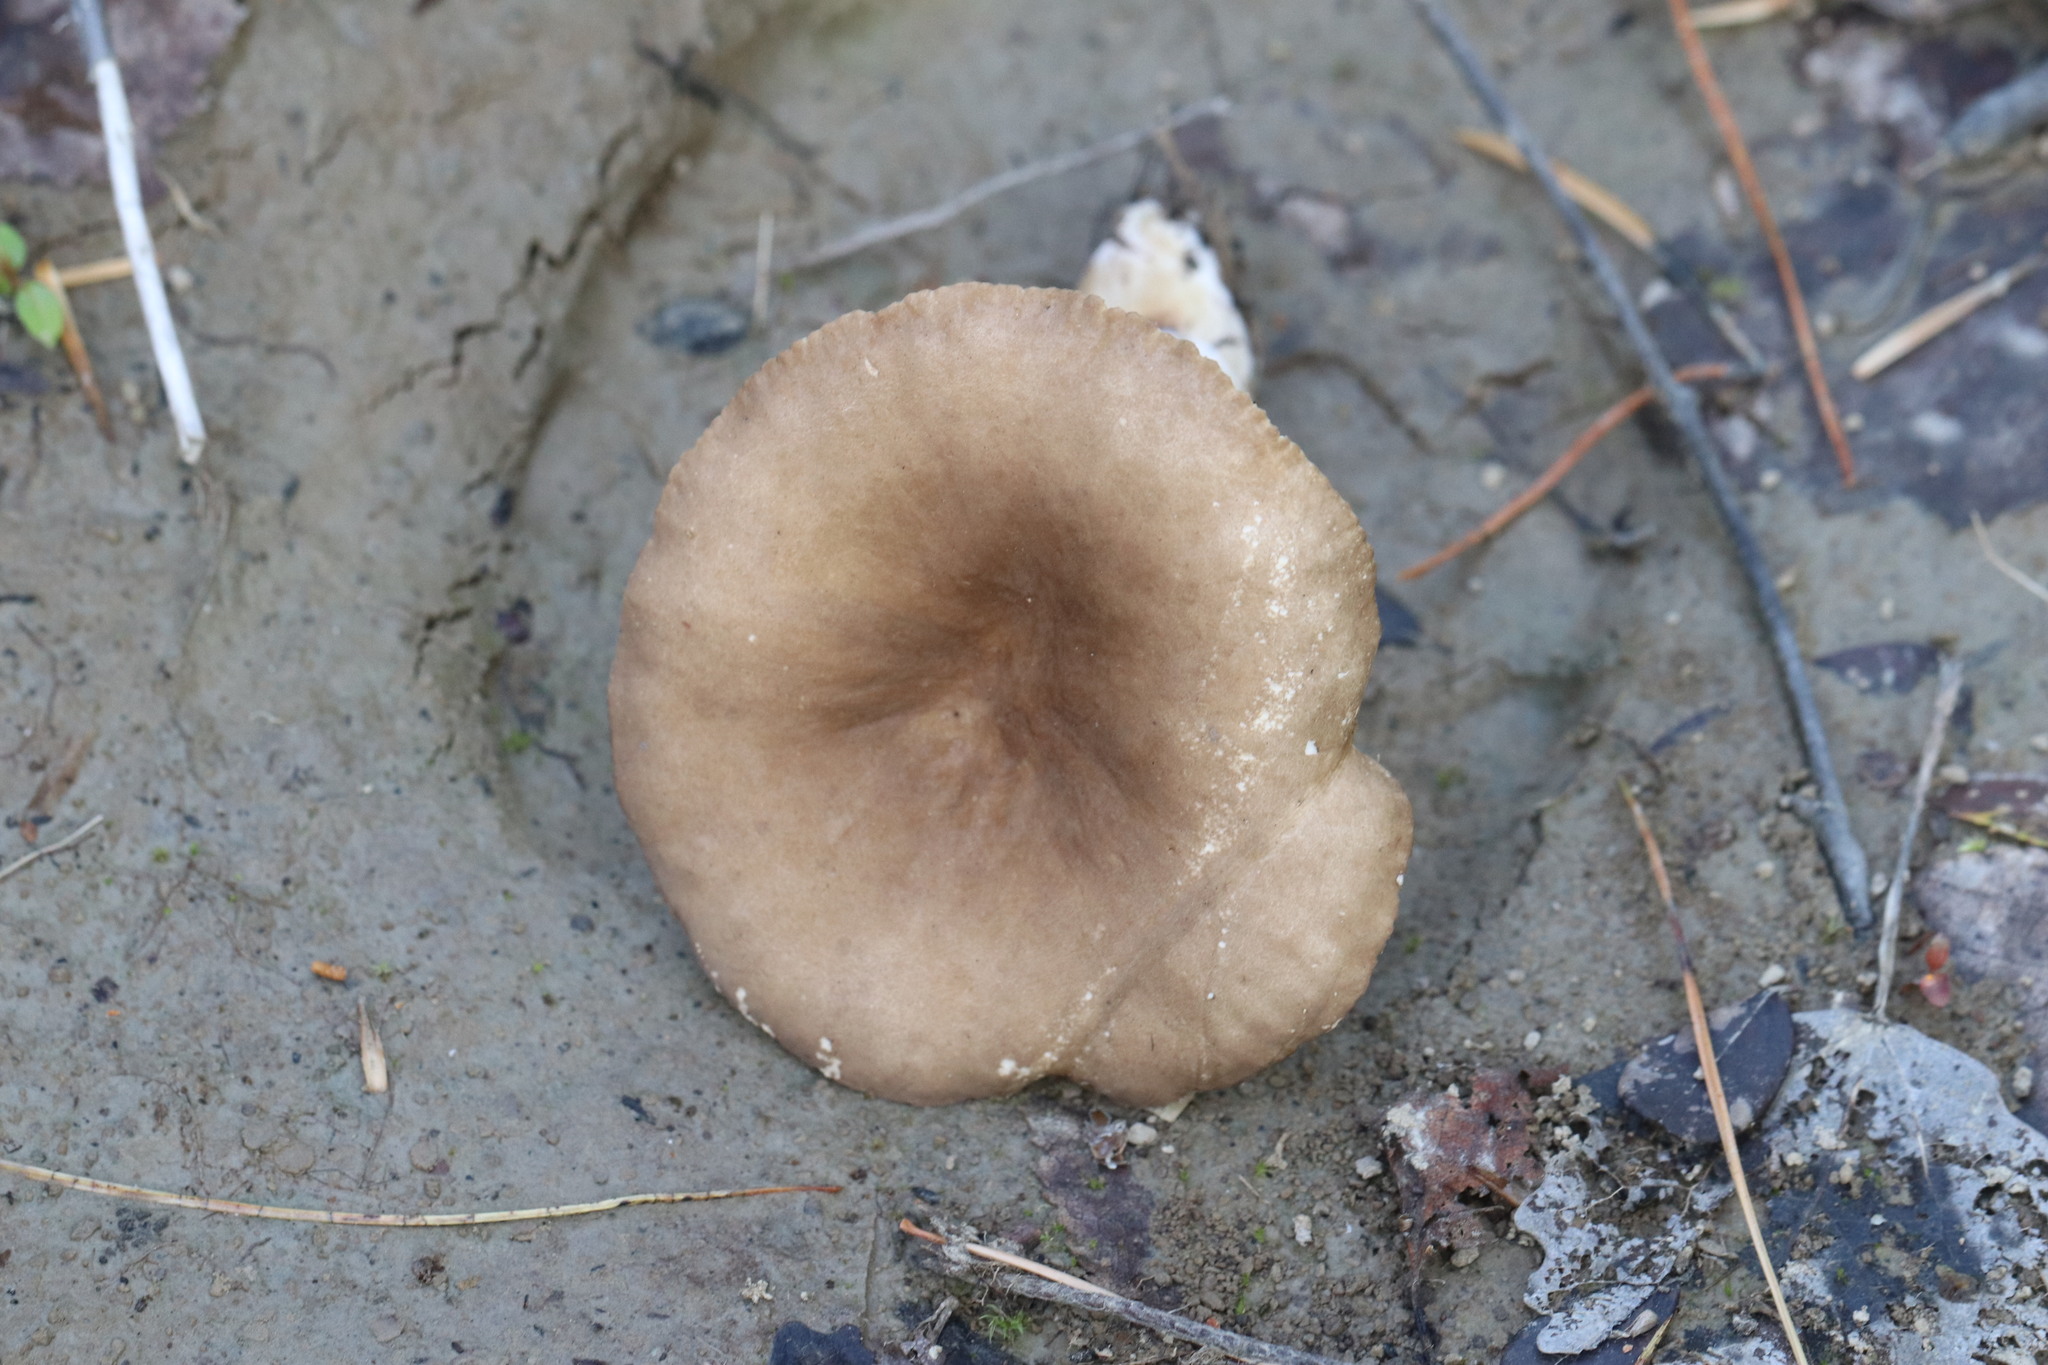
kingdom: Fungi
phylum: Basidiomycota
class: Agaricomycetes
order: Russulales
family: Russulaceae
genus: Lactarius
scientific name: Lactarius fuliginosus
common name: Sooty milkcap
